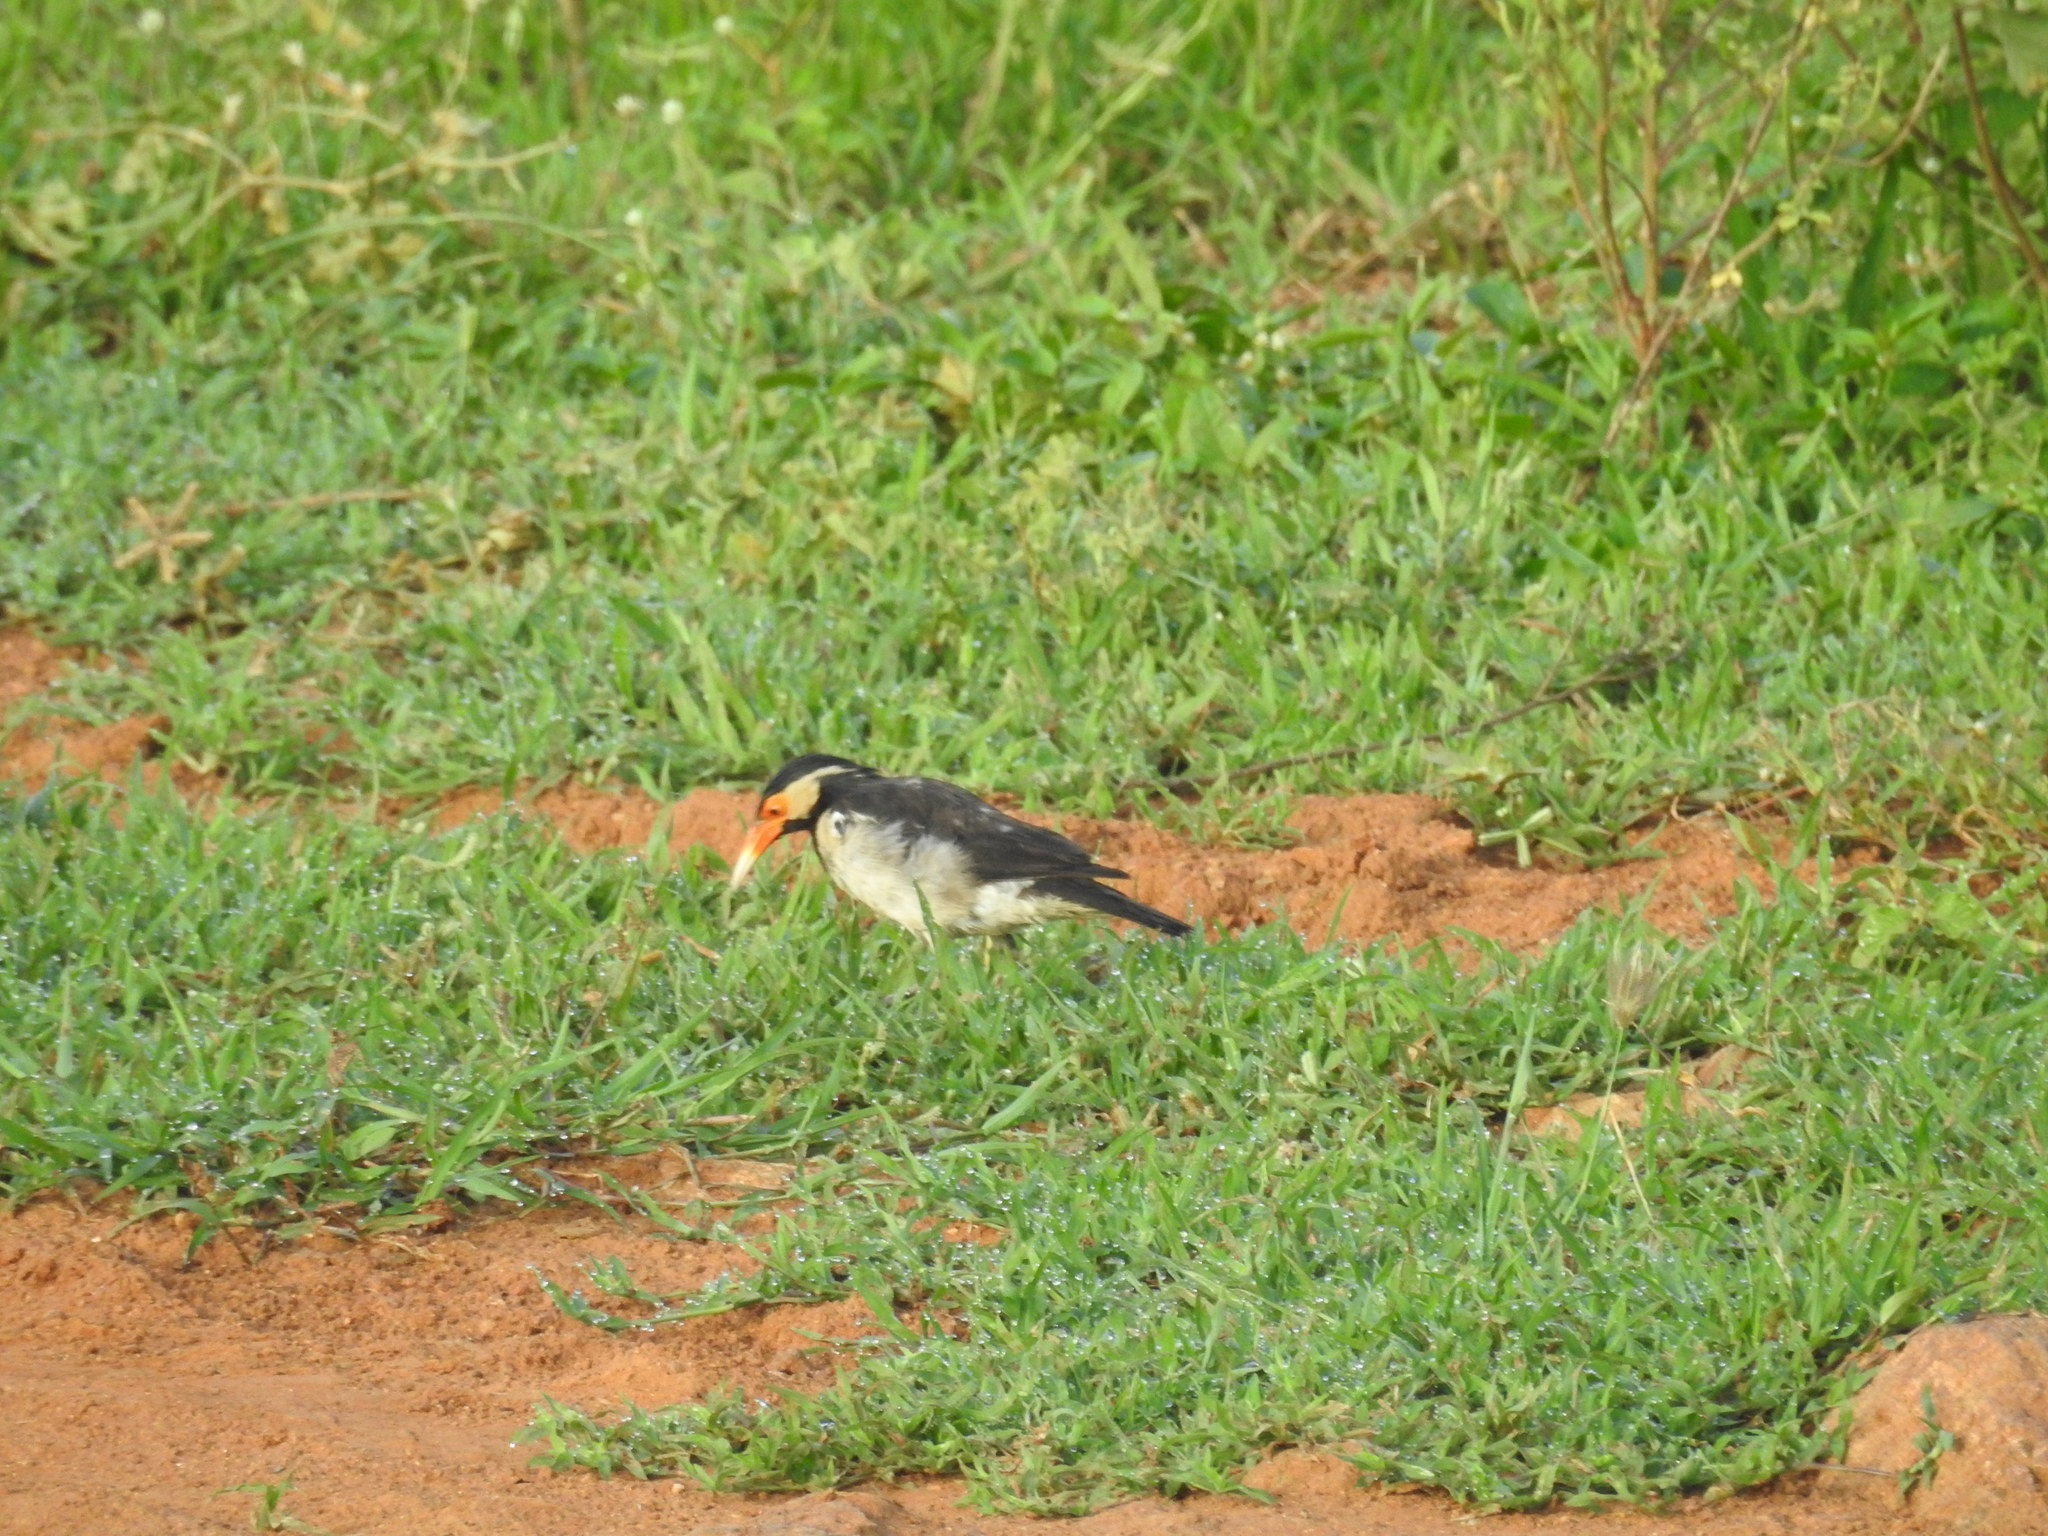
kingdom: Animalia
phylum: Chordata
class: Aves
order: Passeriformes
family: Sturnidae
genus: Gracupica
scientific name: Gracupica contra
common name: Pied myna
